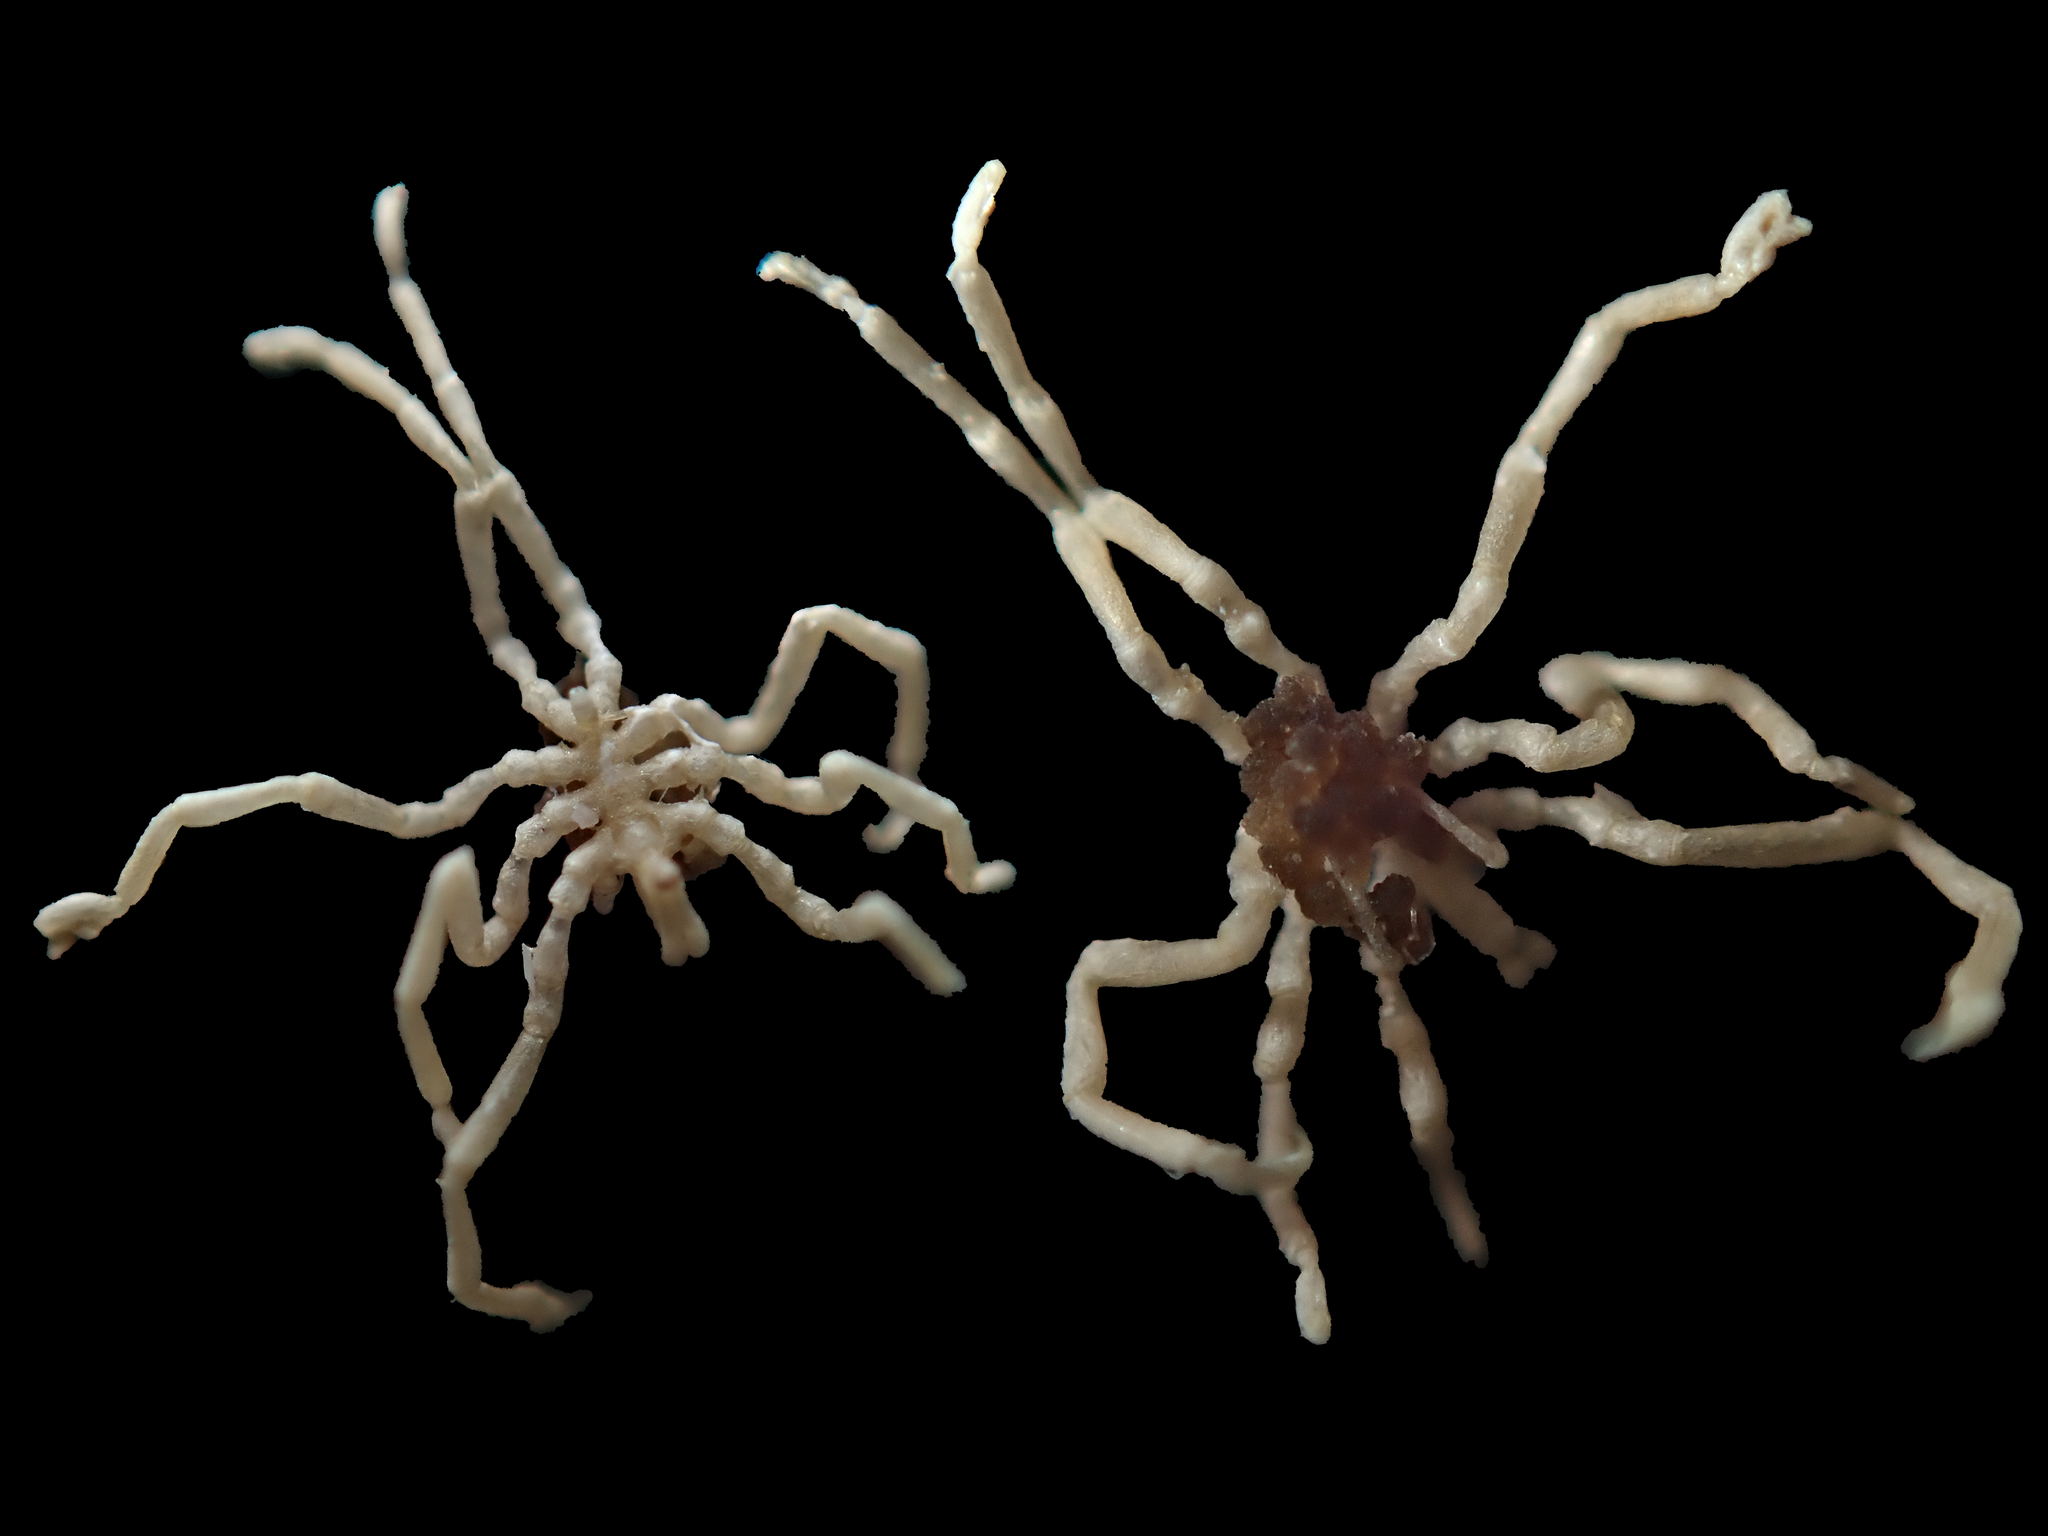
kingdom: Animalia
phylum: Arthropoda
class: Pycnogonida
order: Pantopoda
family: Phoxichilidiidae
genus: Anoplodactylus
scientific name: Anoplodactylus
